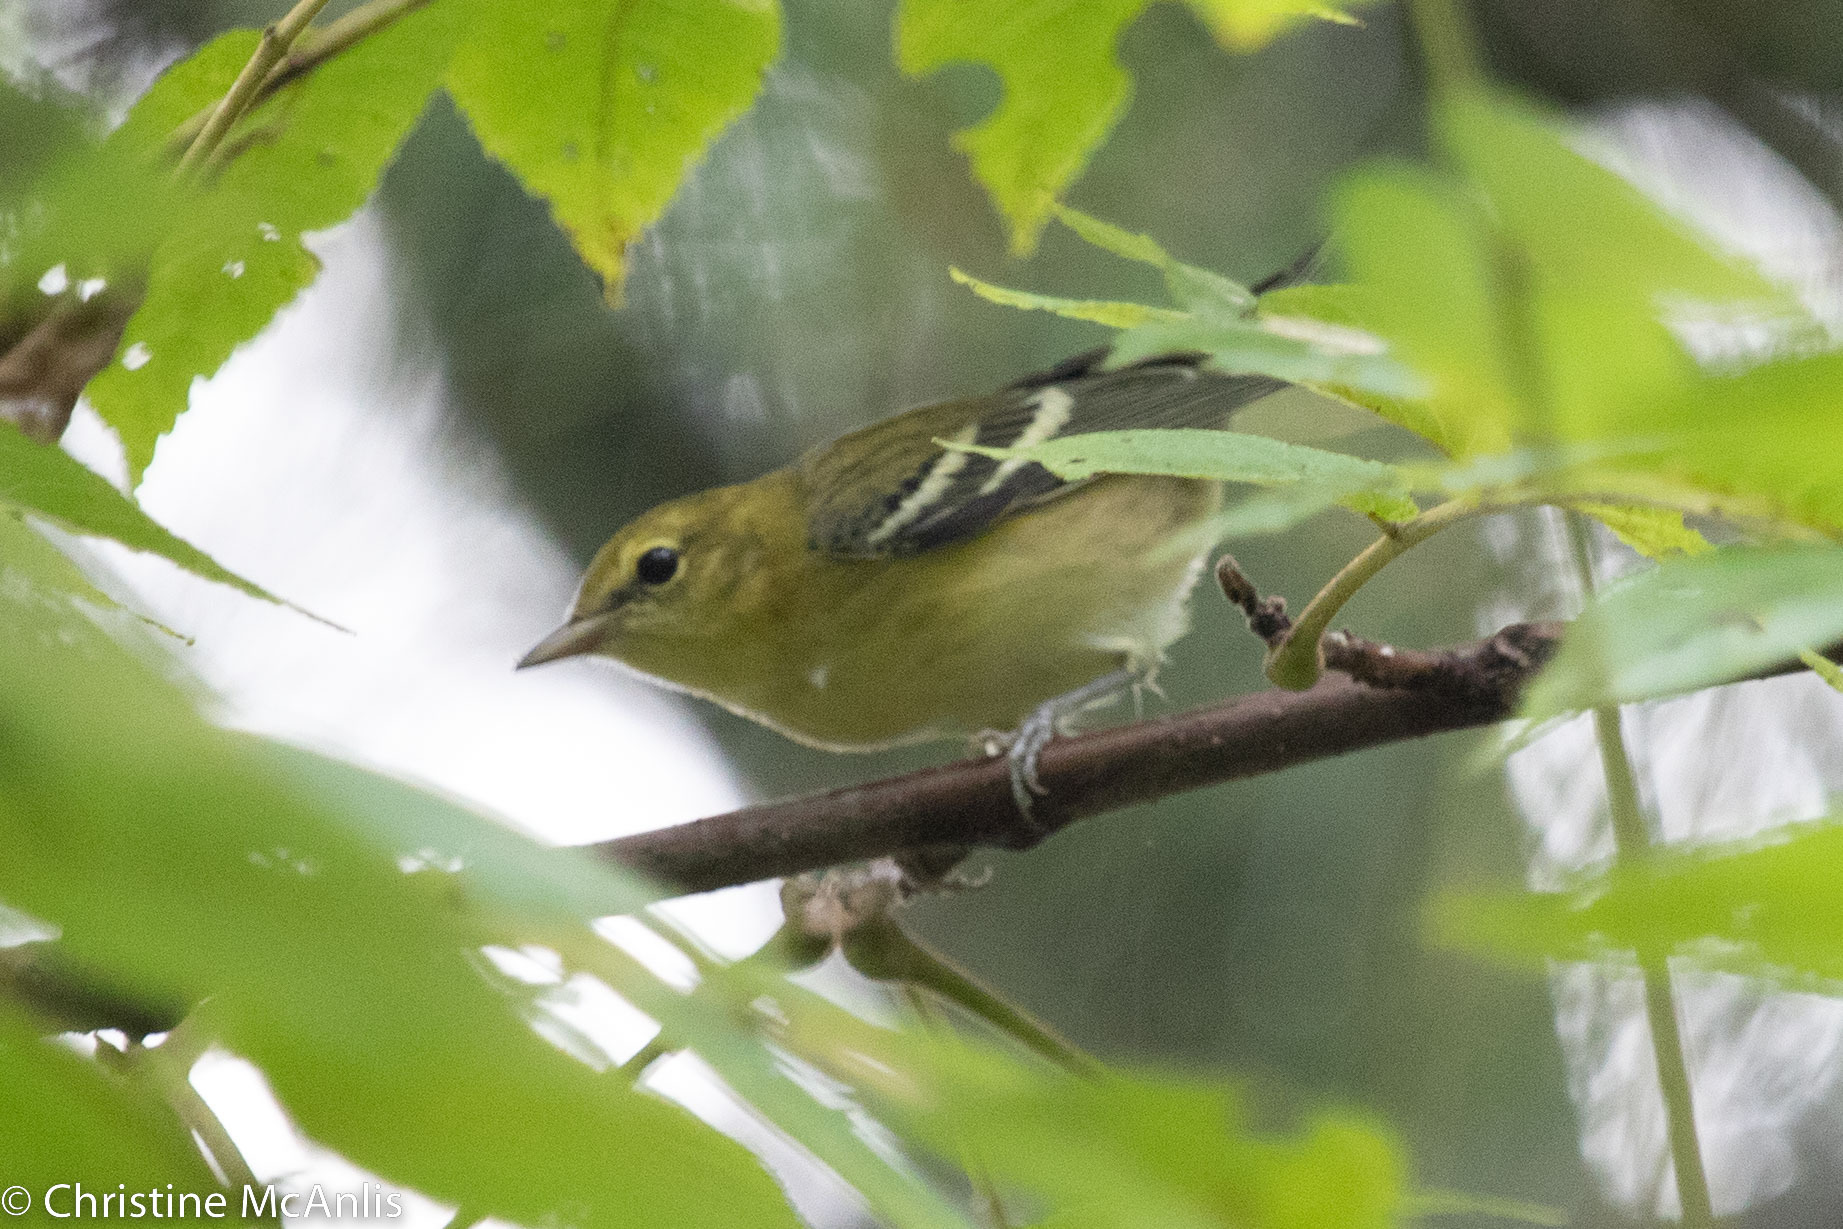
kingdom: Animalia
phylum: Chordata
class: Aves
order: Passeriformes
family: Parulidae
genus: Setophaga
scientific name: Setophaga castanea
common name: Bay-breasted warbler
